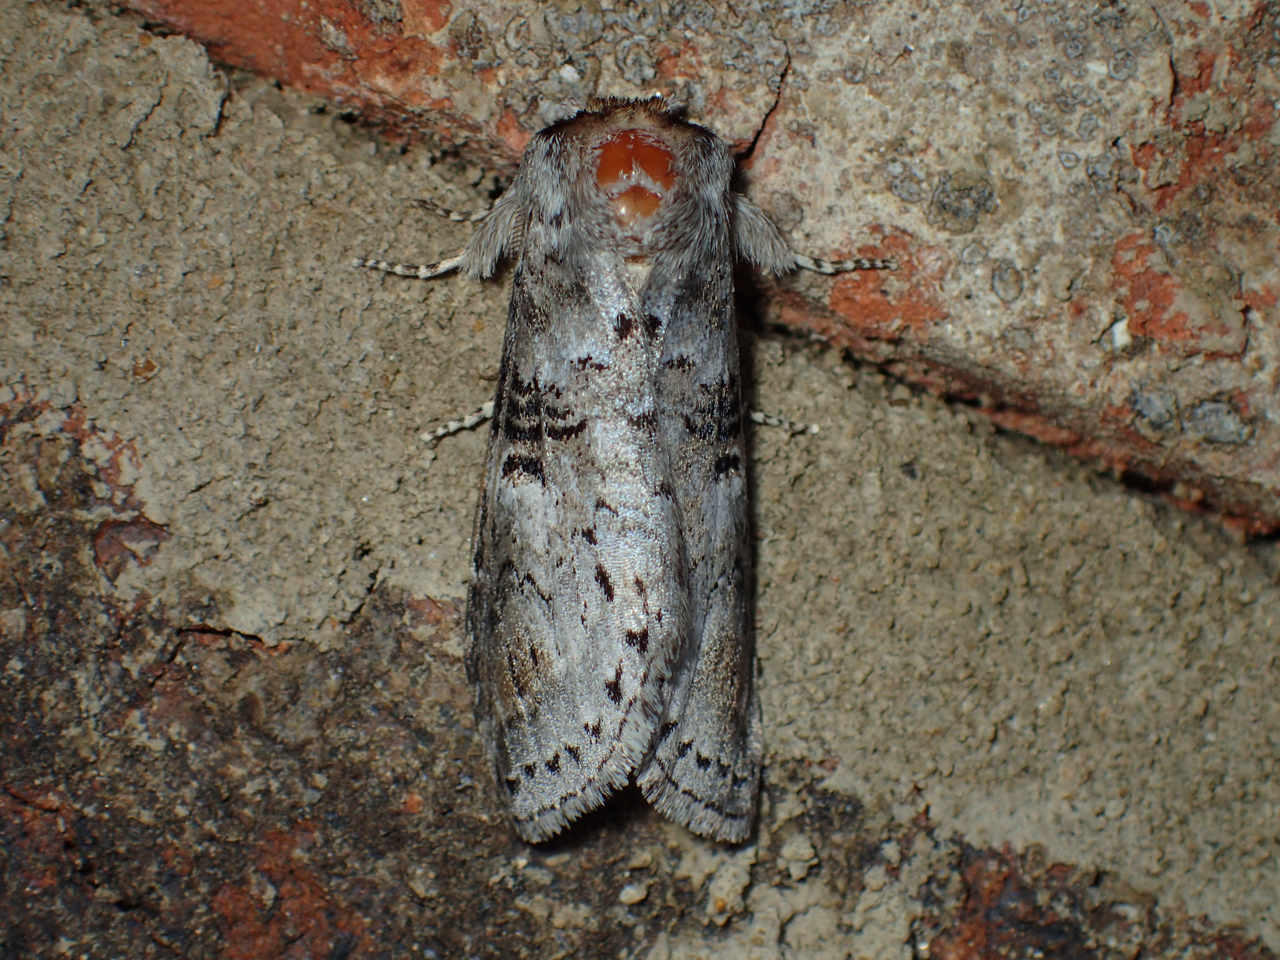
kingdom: Animalia
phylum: Arthropoda
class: Insecta
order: Lepidoptera
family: Notodontidae
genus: Ellida
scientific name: Ellida caniplaga
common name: Linden prominent
